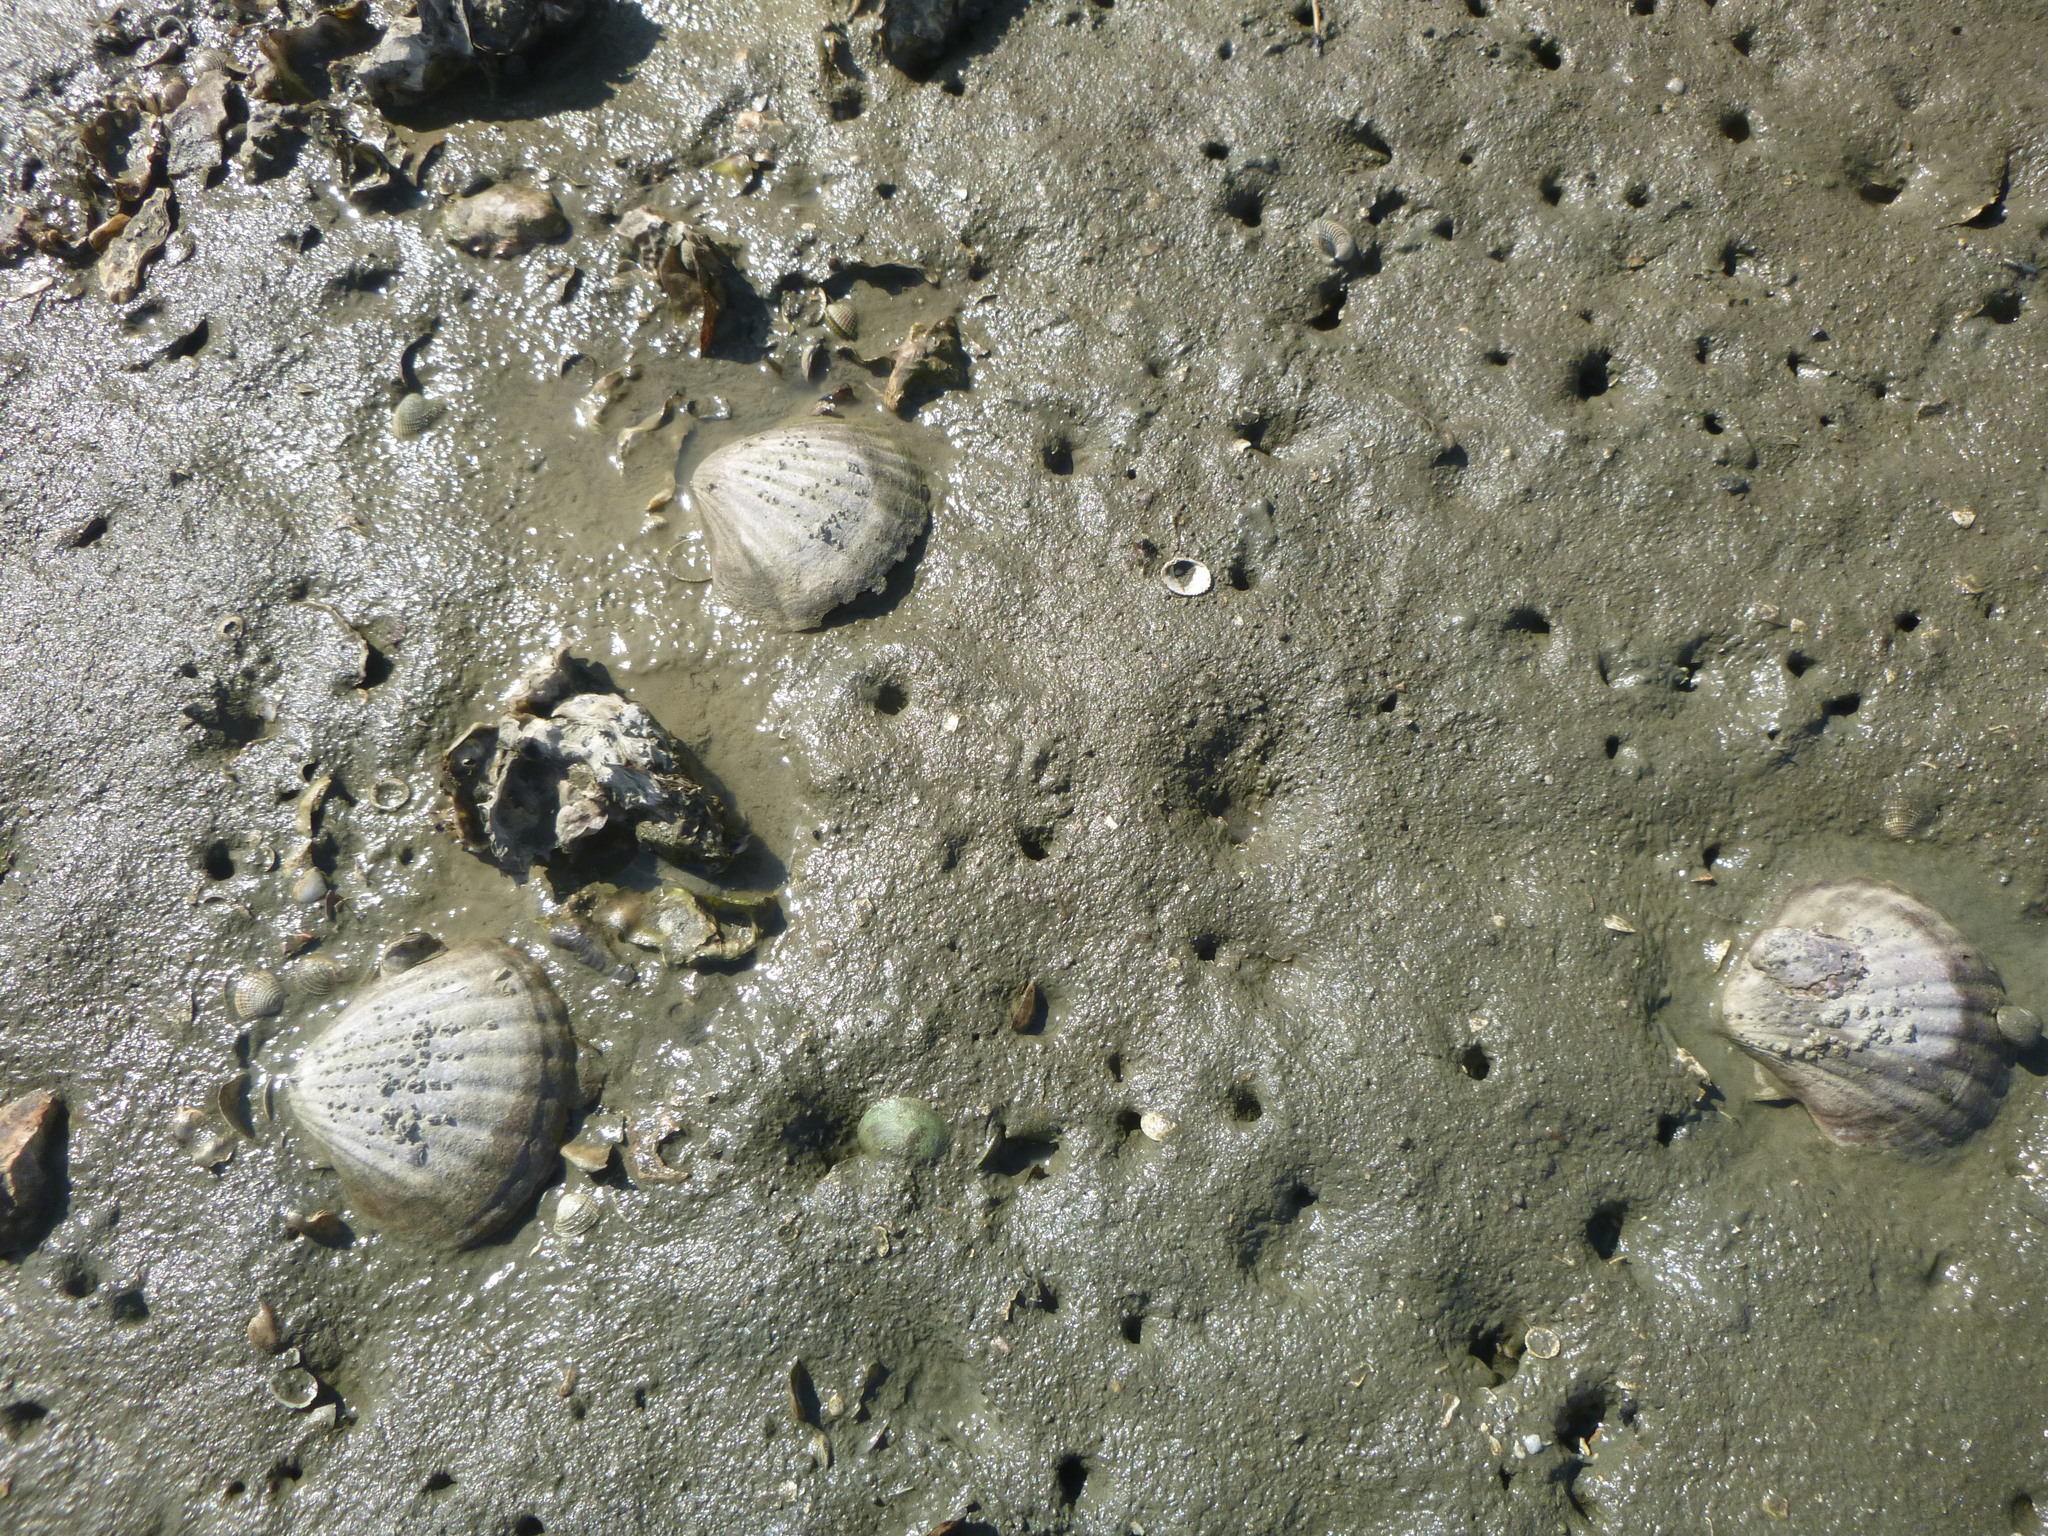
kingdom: Animalia
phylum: Mollusca
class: Bivalvia
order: Pectinida
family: Pectinidae
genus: Pecten
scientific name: Pecten novaezelandiae
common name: New zealand scallop
